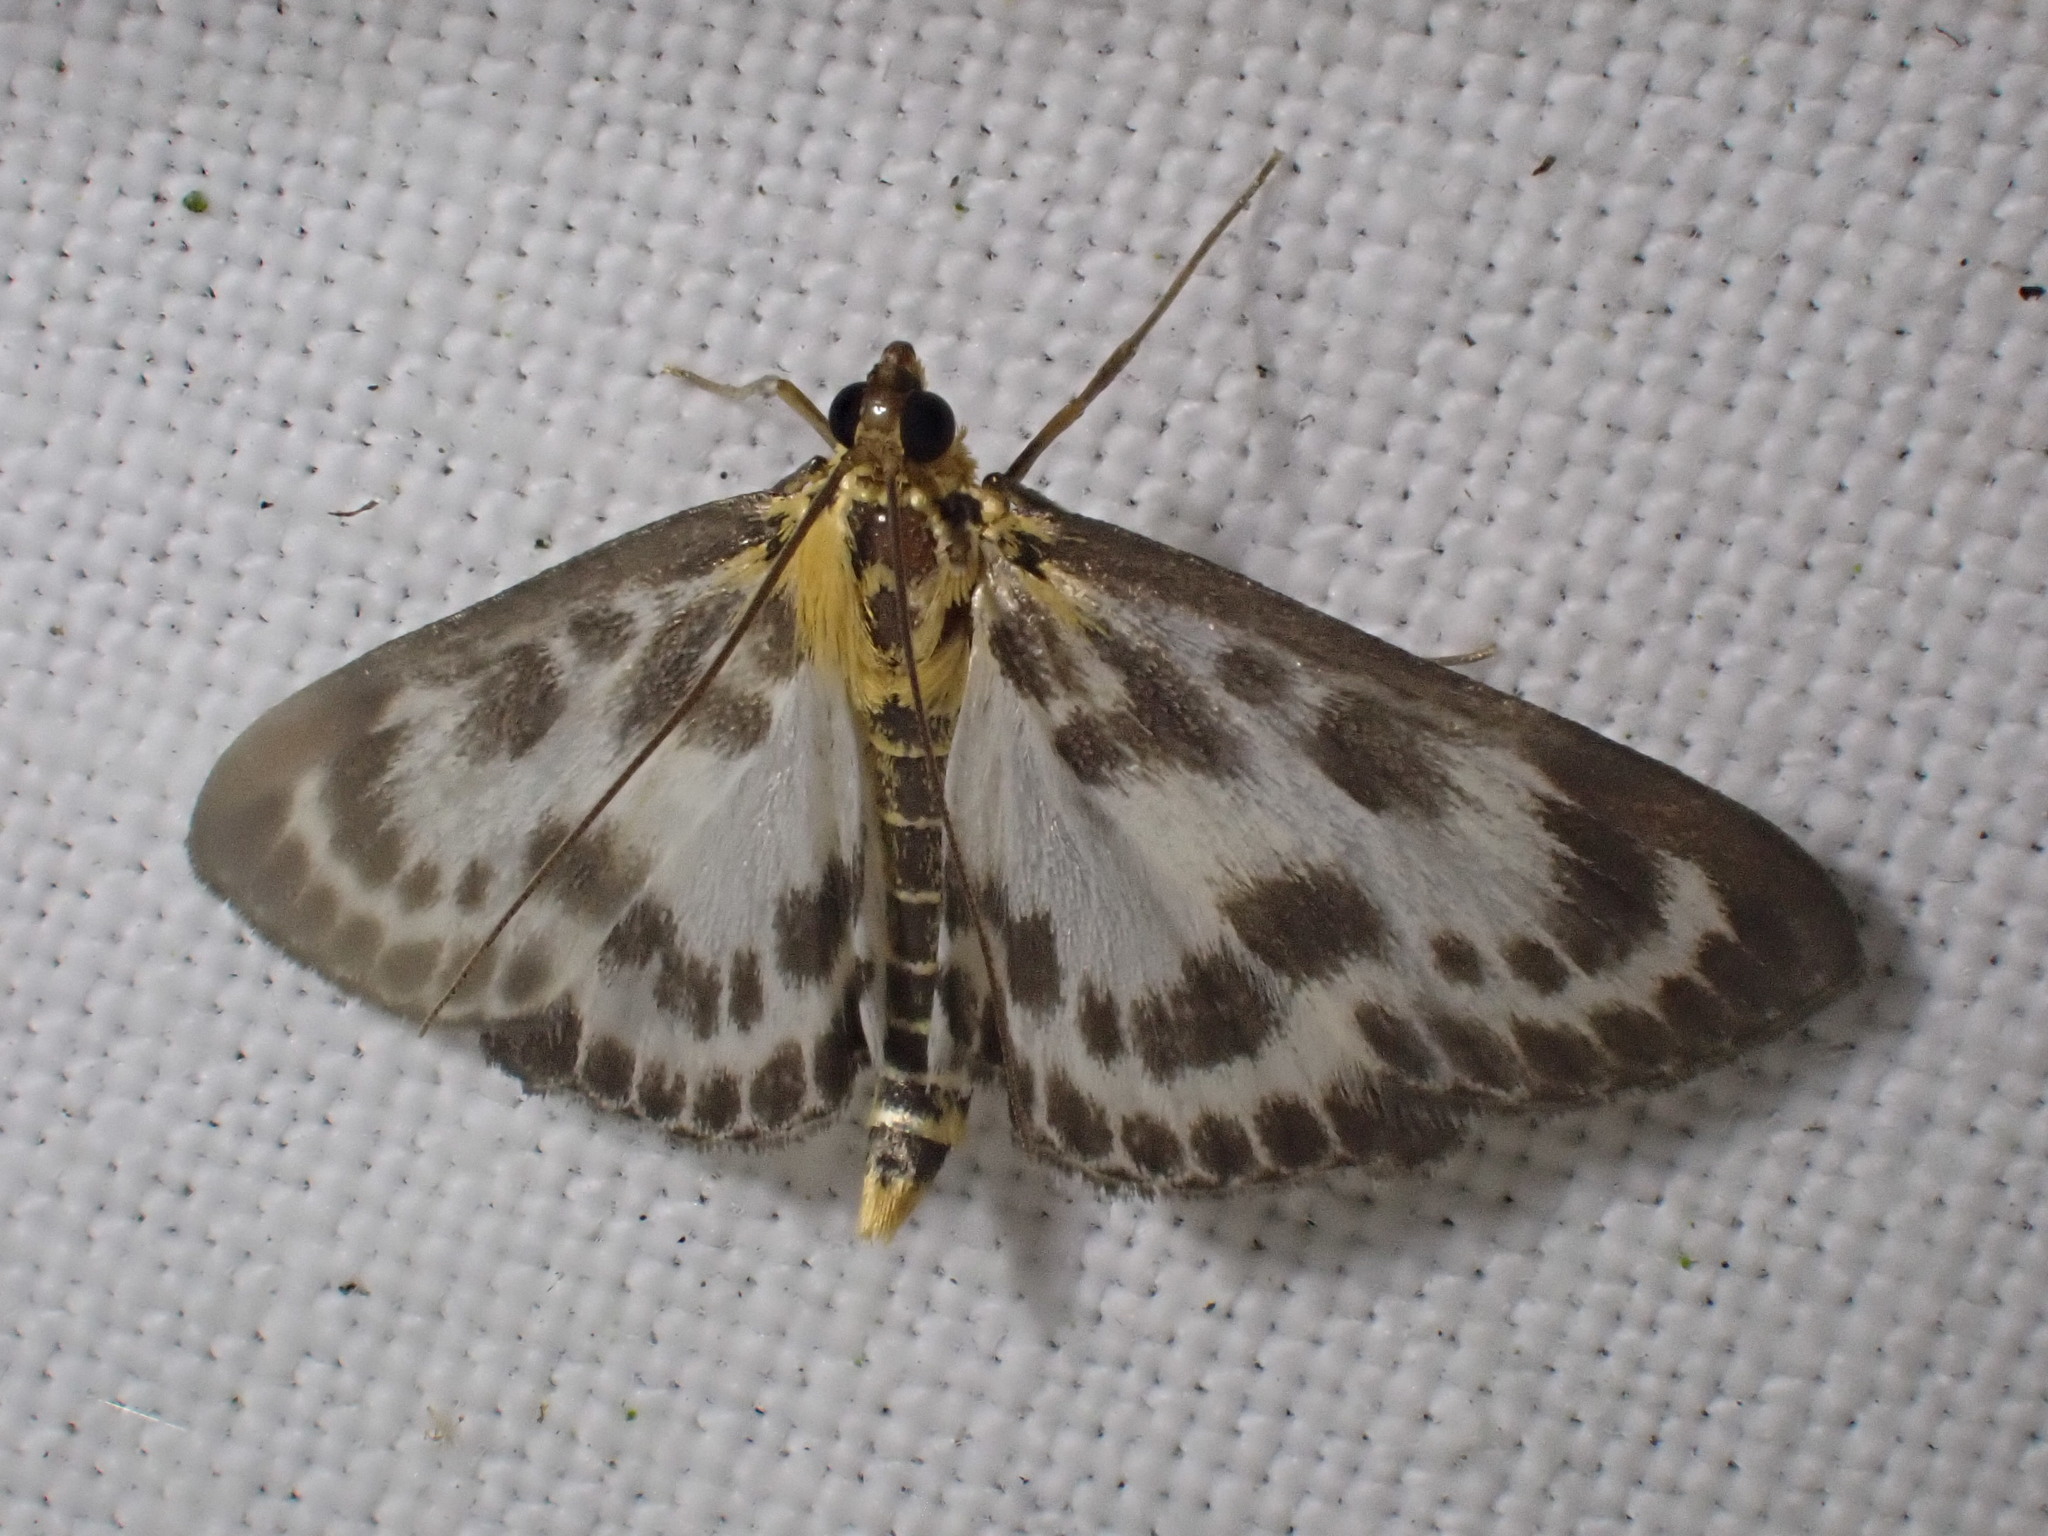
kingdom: Animalia
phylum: Arthropoda
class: Insecta
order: Lepidoptera
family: Crambidae
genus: Anania
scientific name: Anania hortulata
